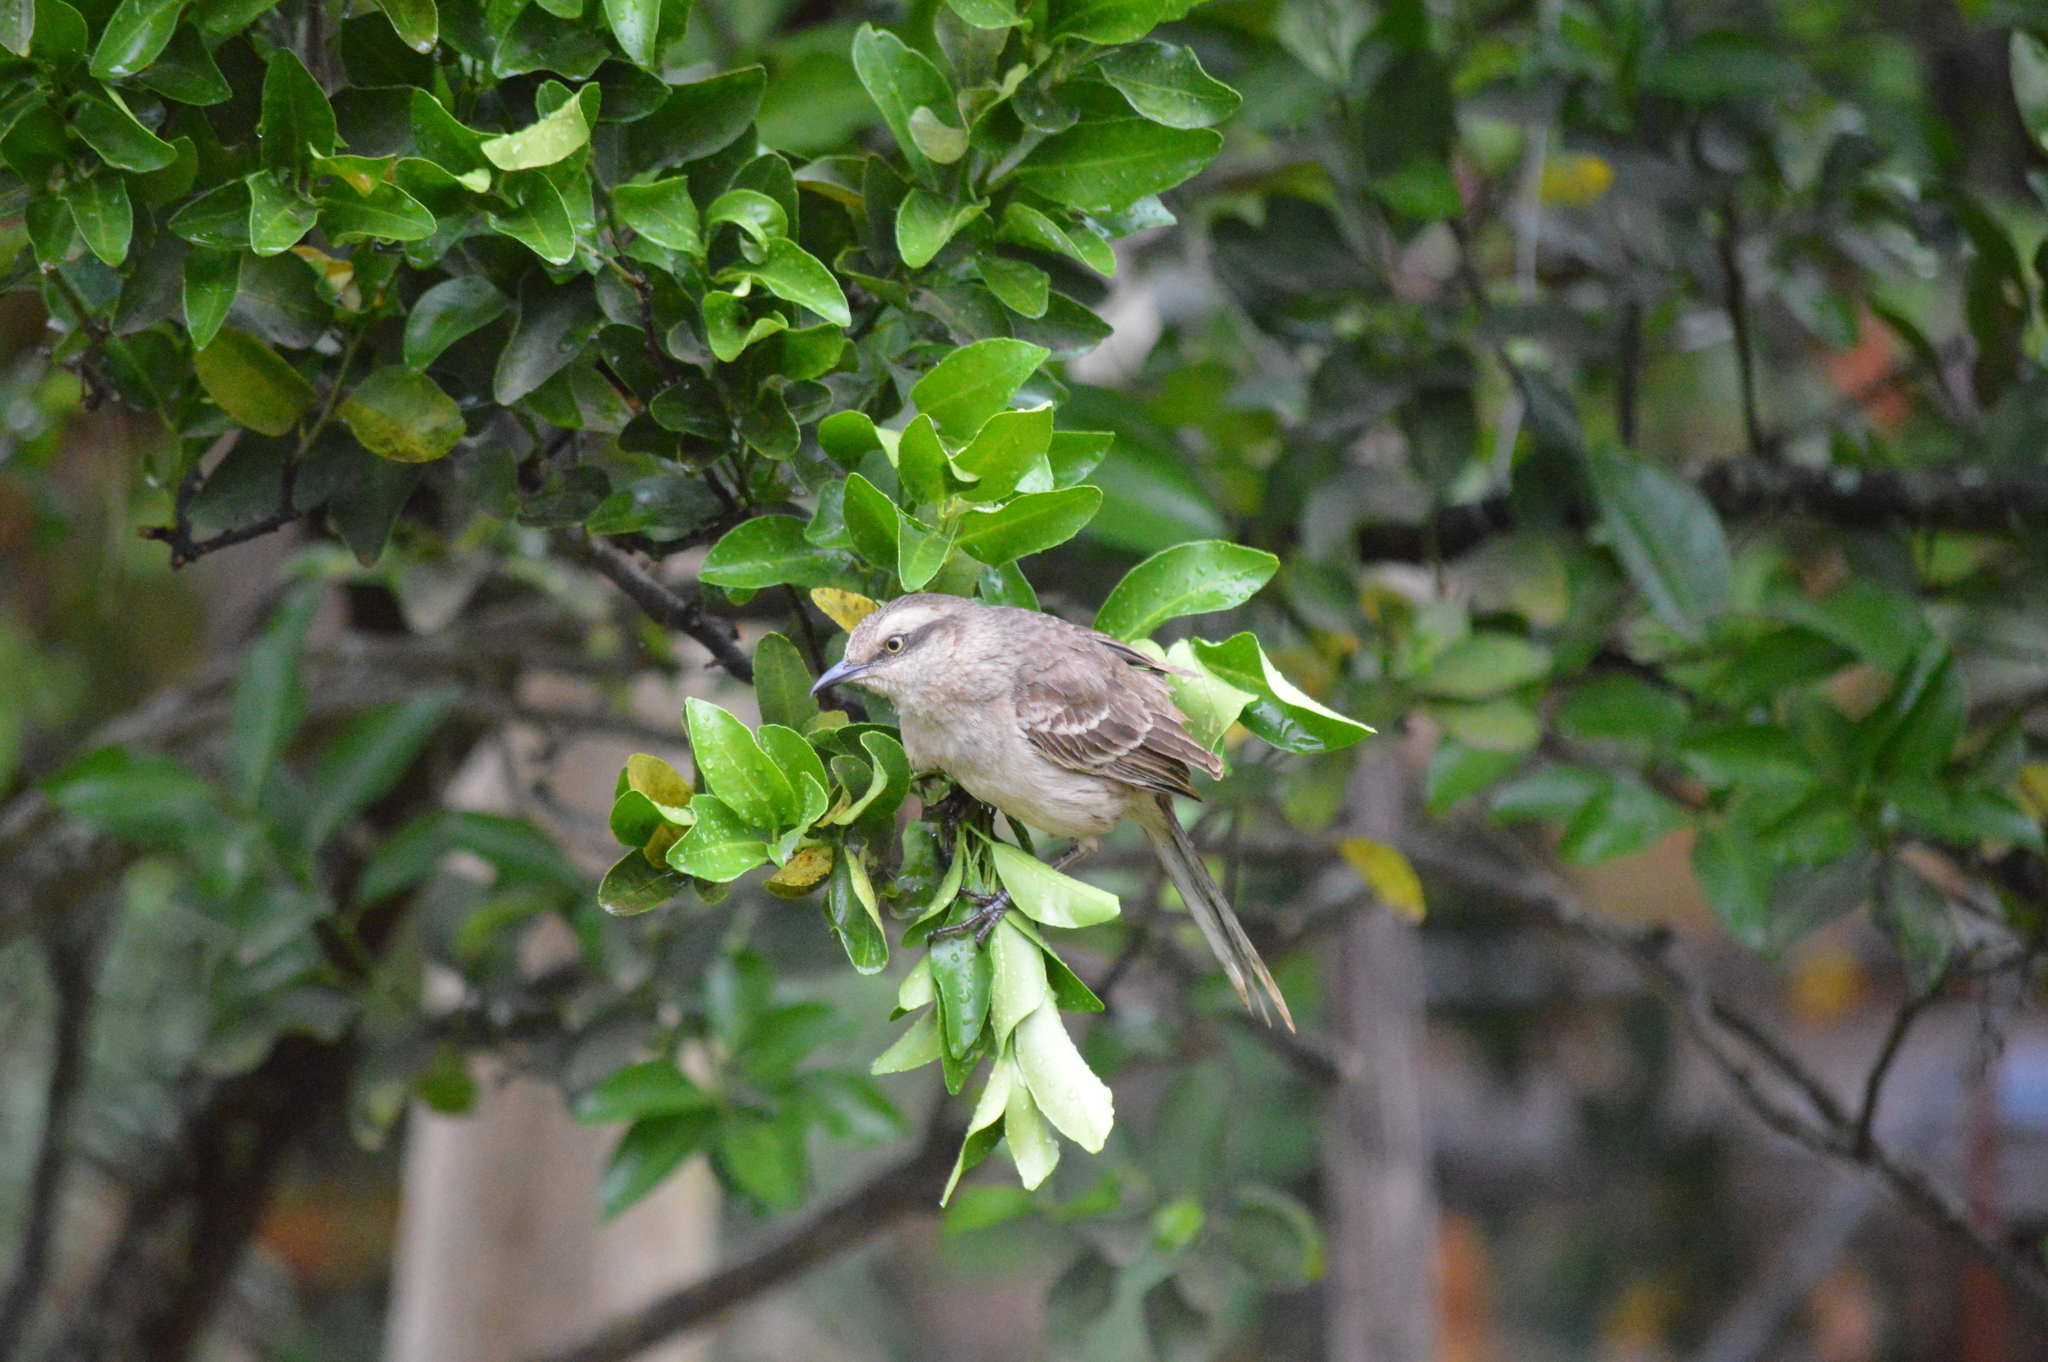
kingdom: Animalia
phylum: Chordata
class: Aves
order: Passeriformes
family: Mimidae
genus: Mimus
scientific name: Mimus saturninus
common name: Chalk-browed mockingbird
